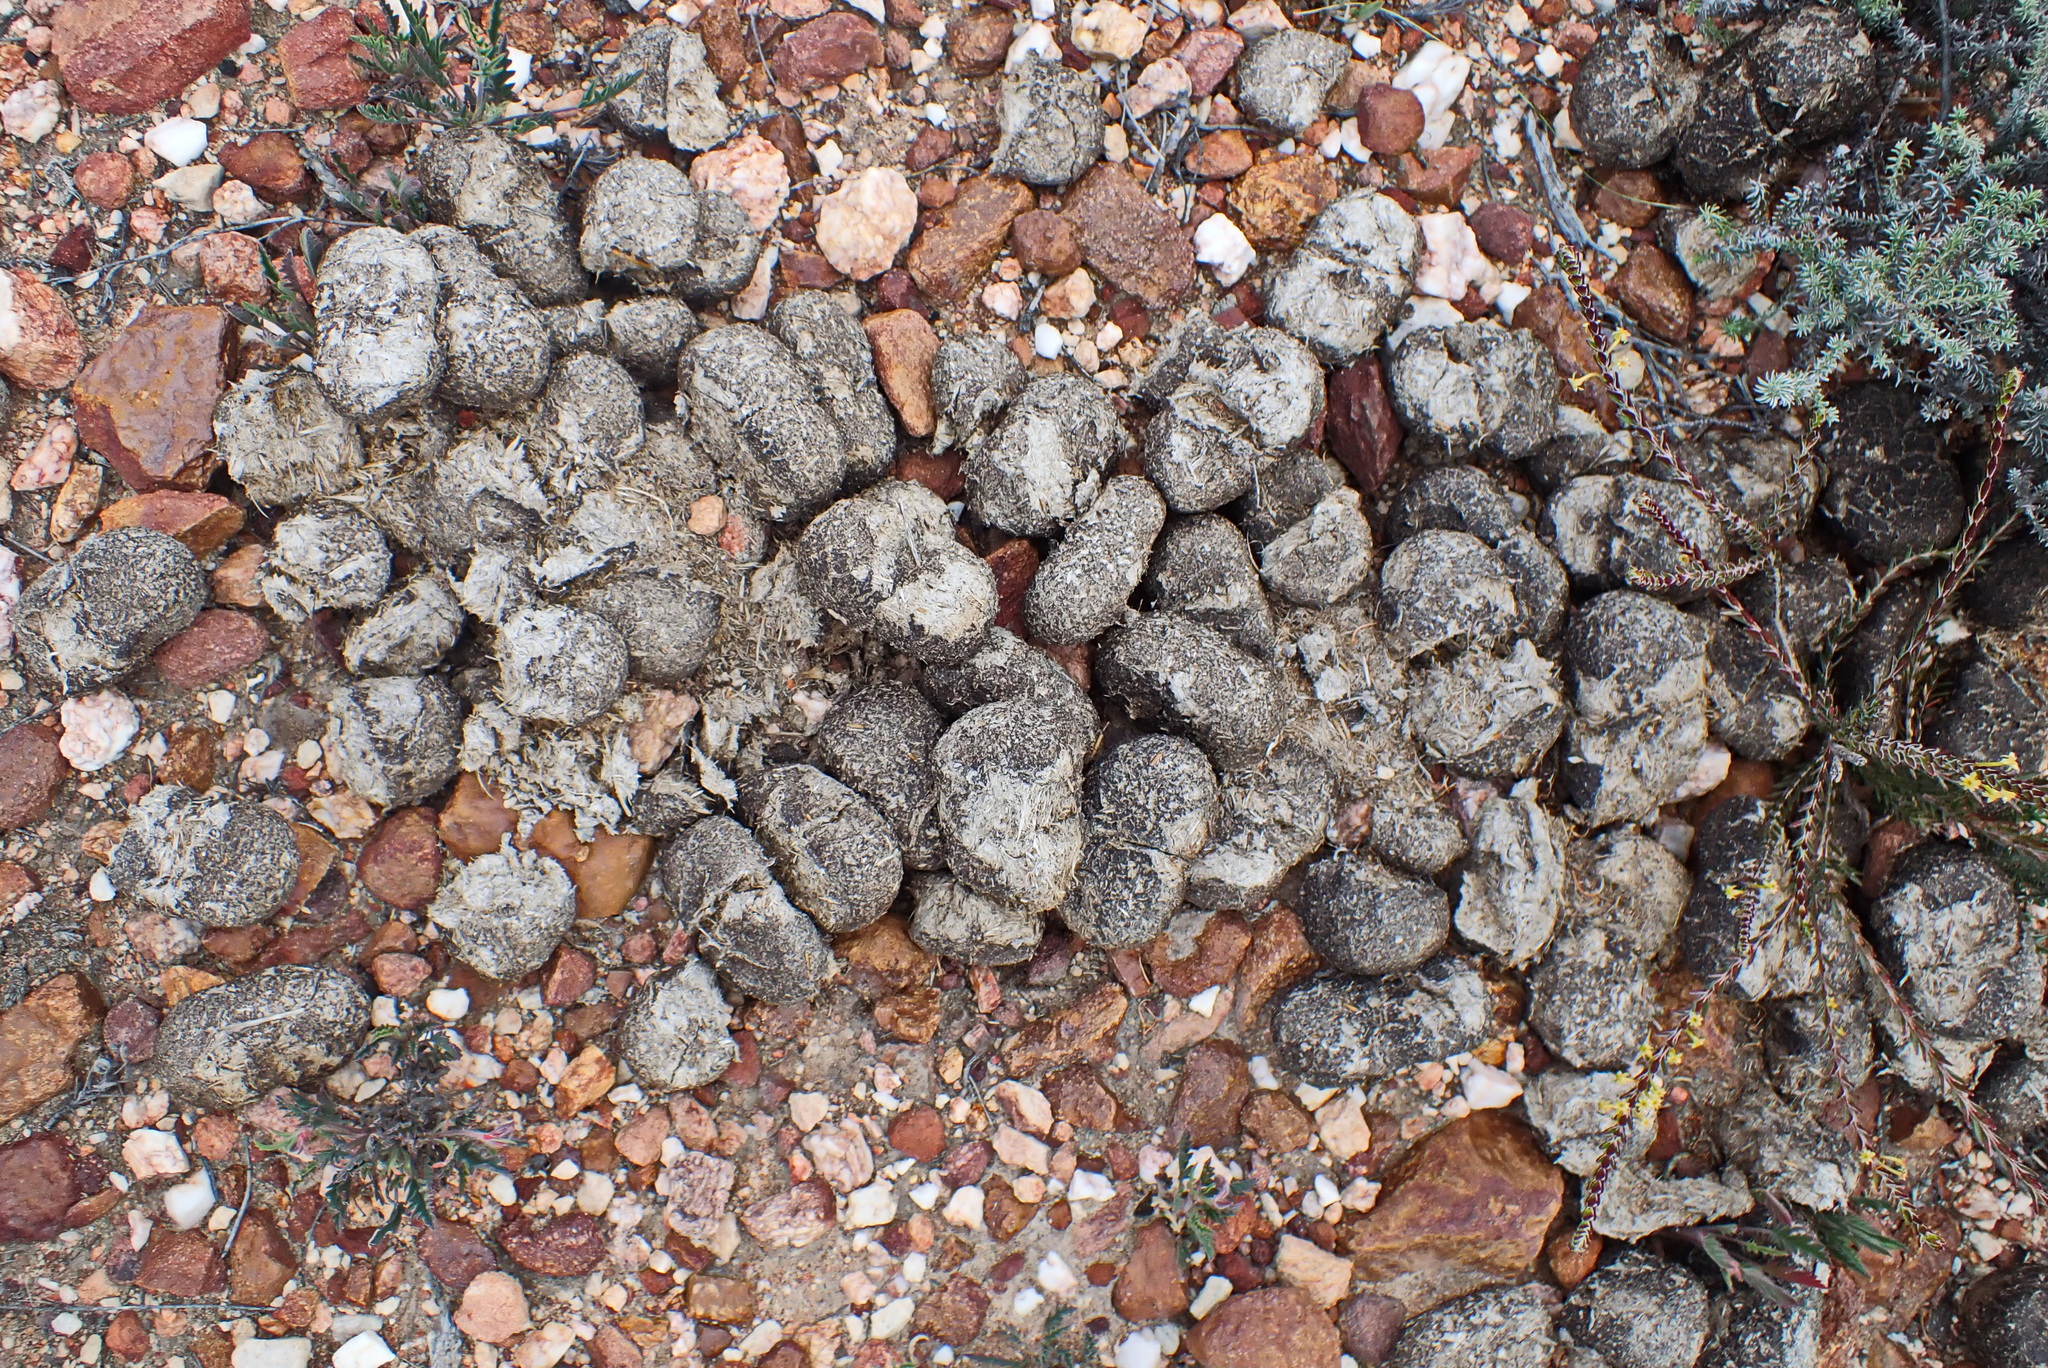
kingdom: Animalia
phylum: Chordata
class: Mammalia
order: Perissodactyla
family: Equidae
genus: Equus
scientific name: Equus quagga
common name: Plains zebra
